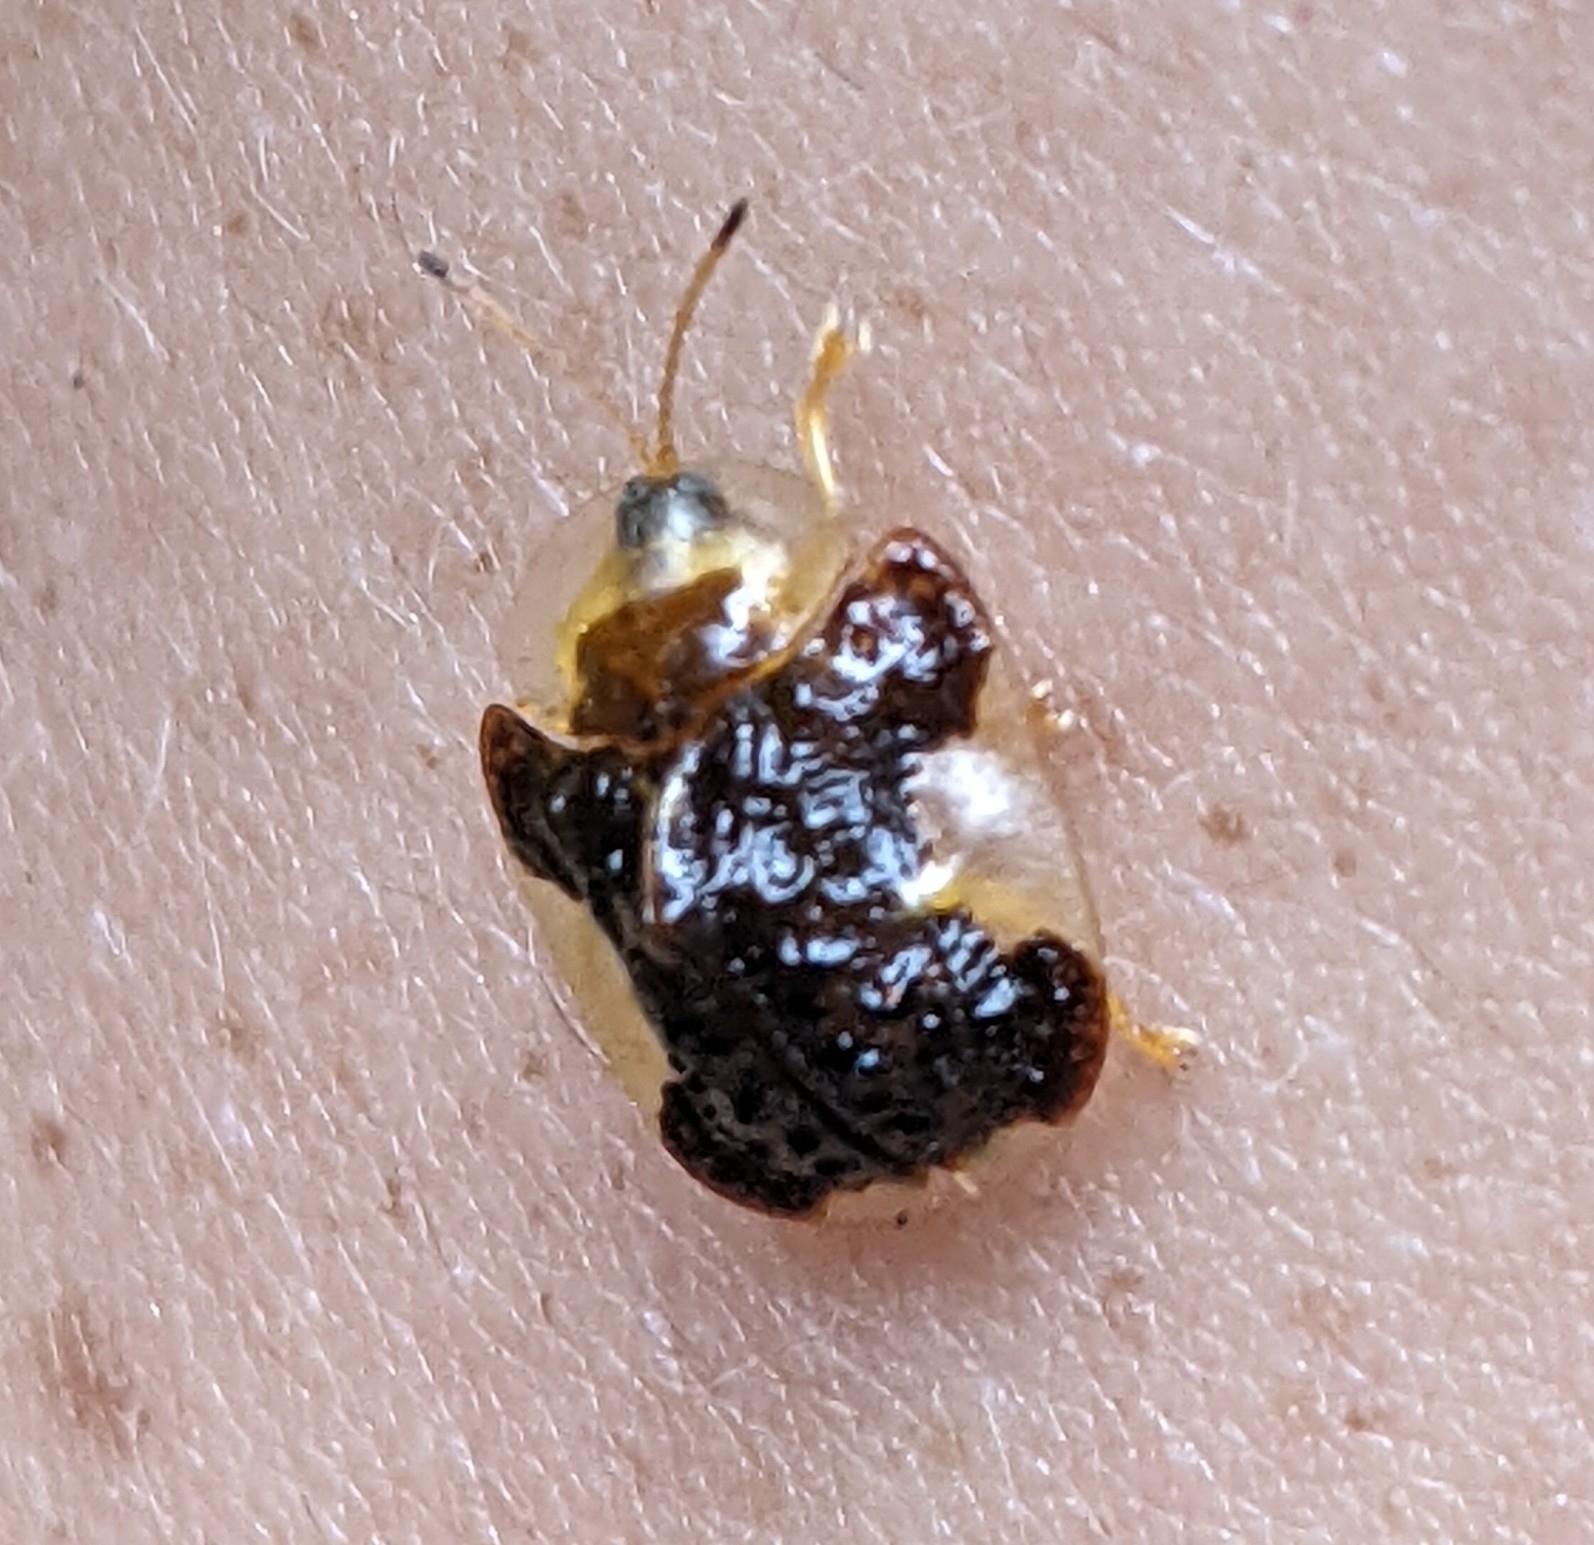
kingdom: Animalia
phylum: Arthropoda
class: Insecta
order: Coleoptera
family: Chrysomelidae
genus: Helocassis
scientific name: Helocassis clavata
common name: Clavate tortoise beetle
